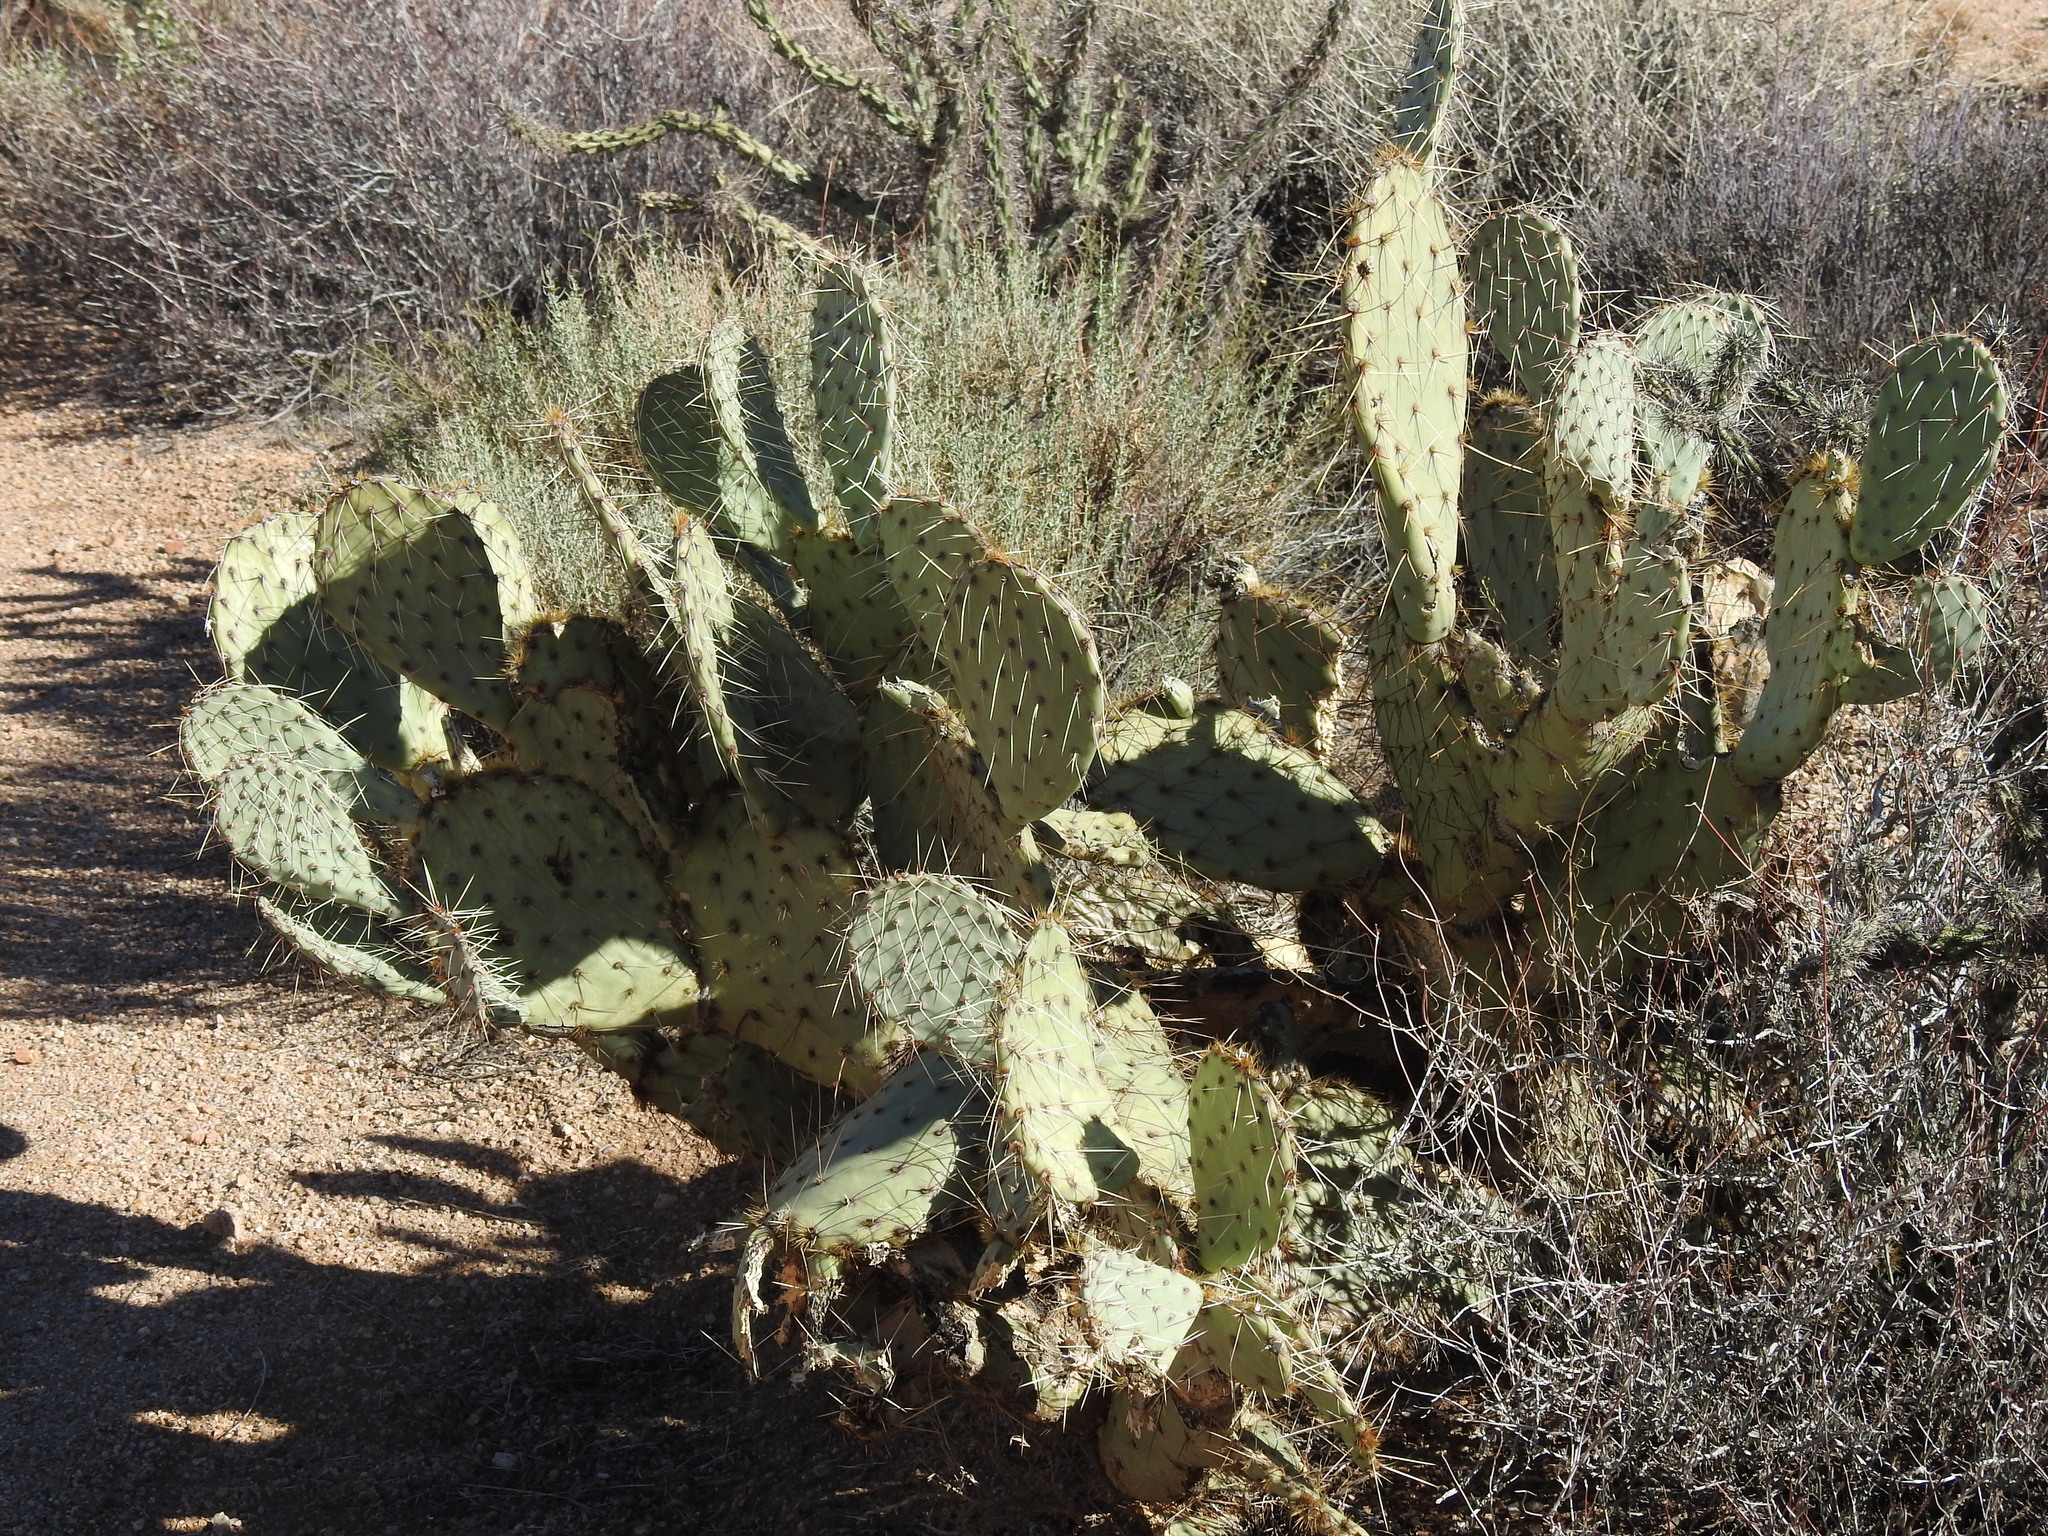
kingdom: Plantae
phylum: Tracheophyta
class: Magnoliopsida
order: Caryophyllales
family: Cactaceae
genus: Opuntia
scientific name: Opuntia engelmannii
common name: Cactus-apple
